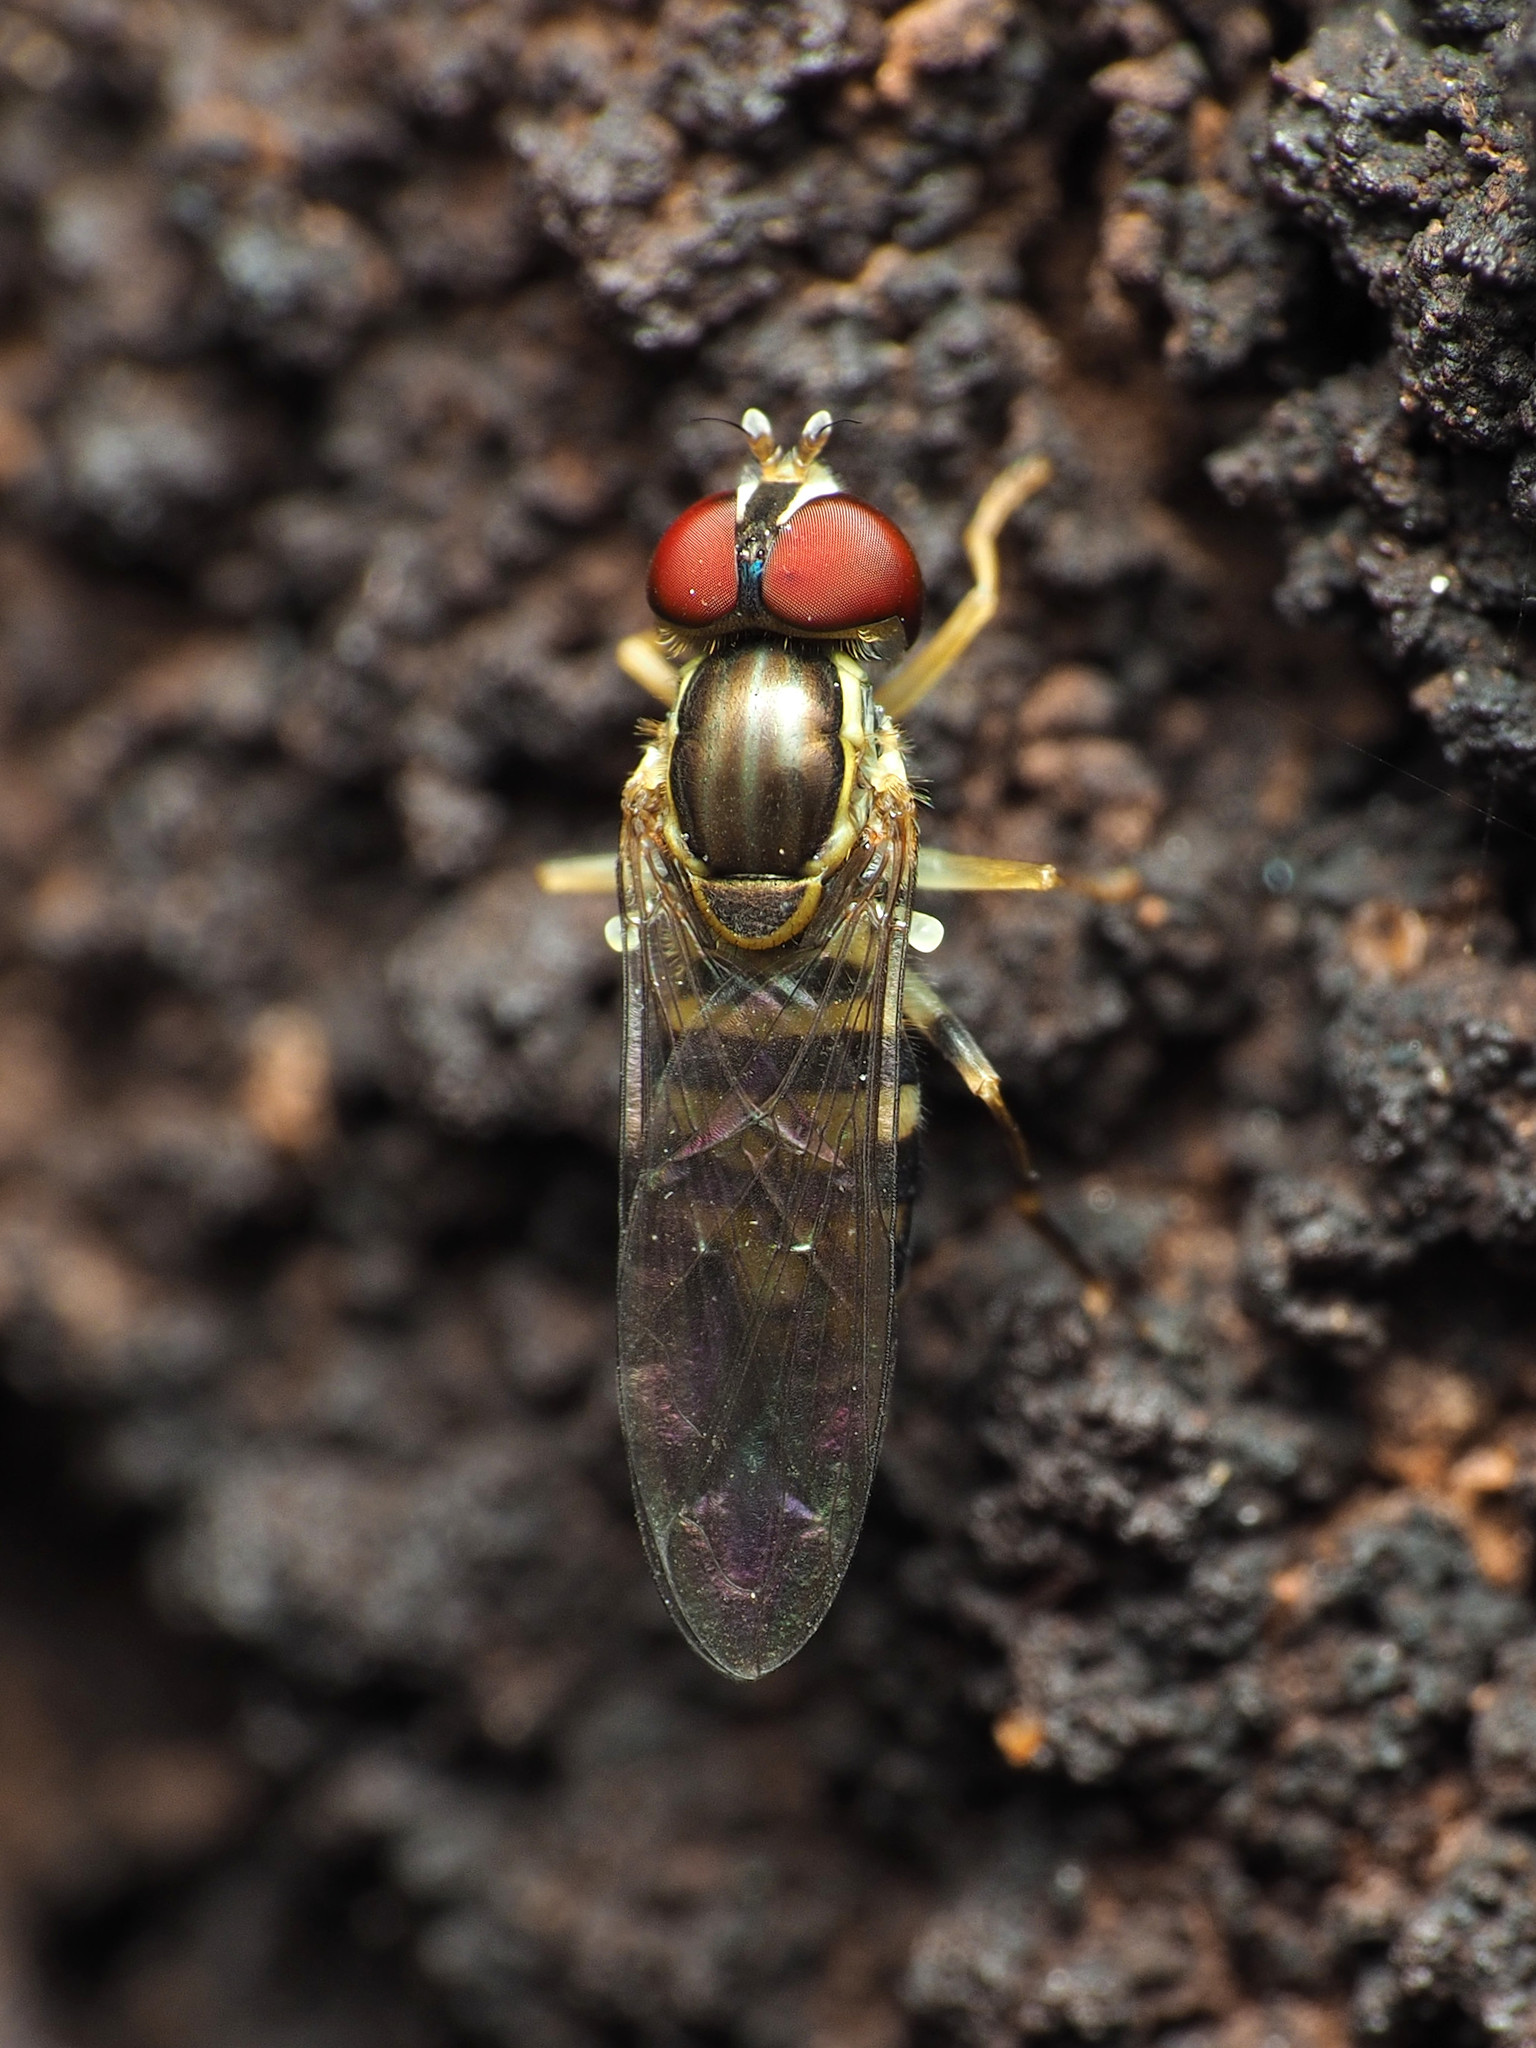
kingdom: Animalia
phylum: Arthropoda
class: Insecta
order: Diptera
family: Syrphidae
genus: Toxomerus
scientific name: Toxomerus geminatus
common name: Eastern calligrapher
